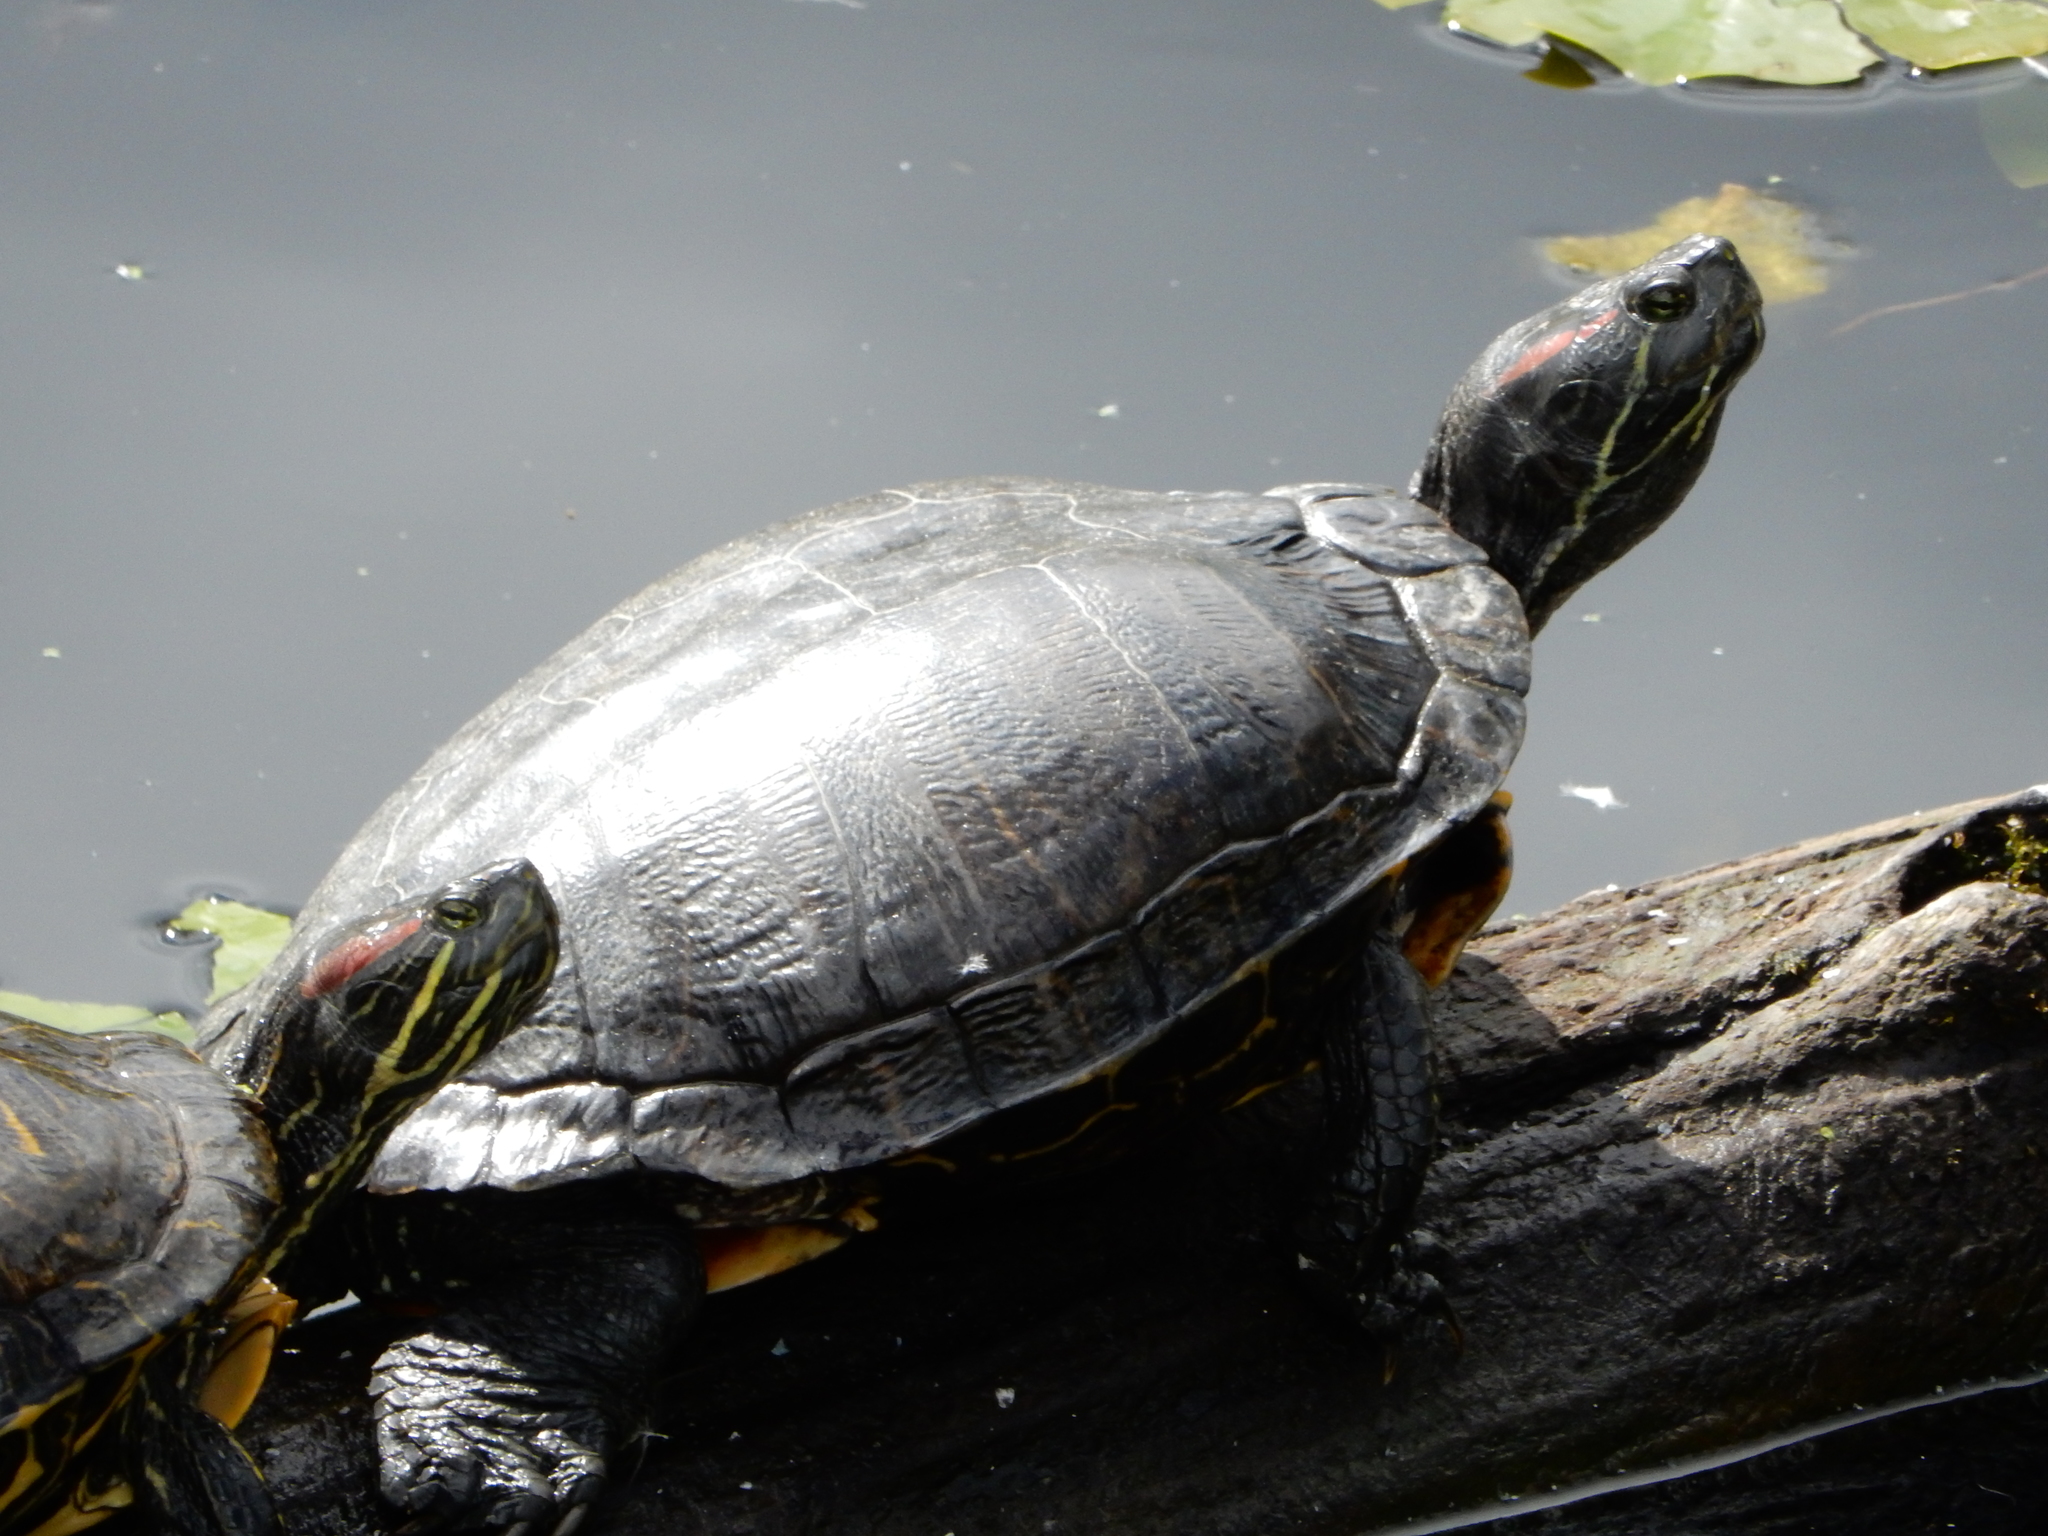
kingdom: Animalia
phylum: Chordata
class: Testudines
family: Emydidae
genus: Trachemys
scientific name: Trachemys scripta
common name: Slider
